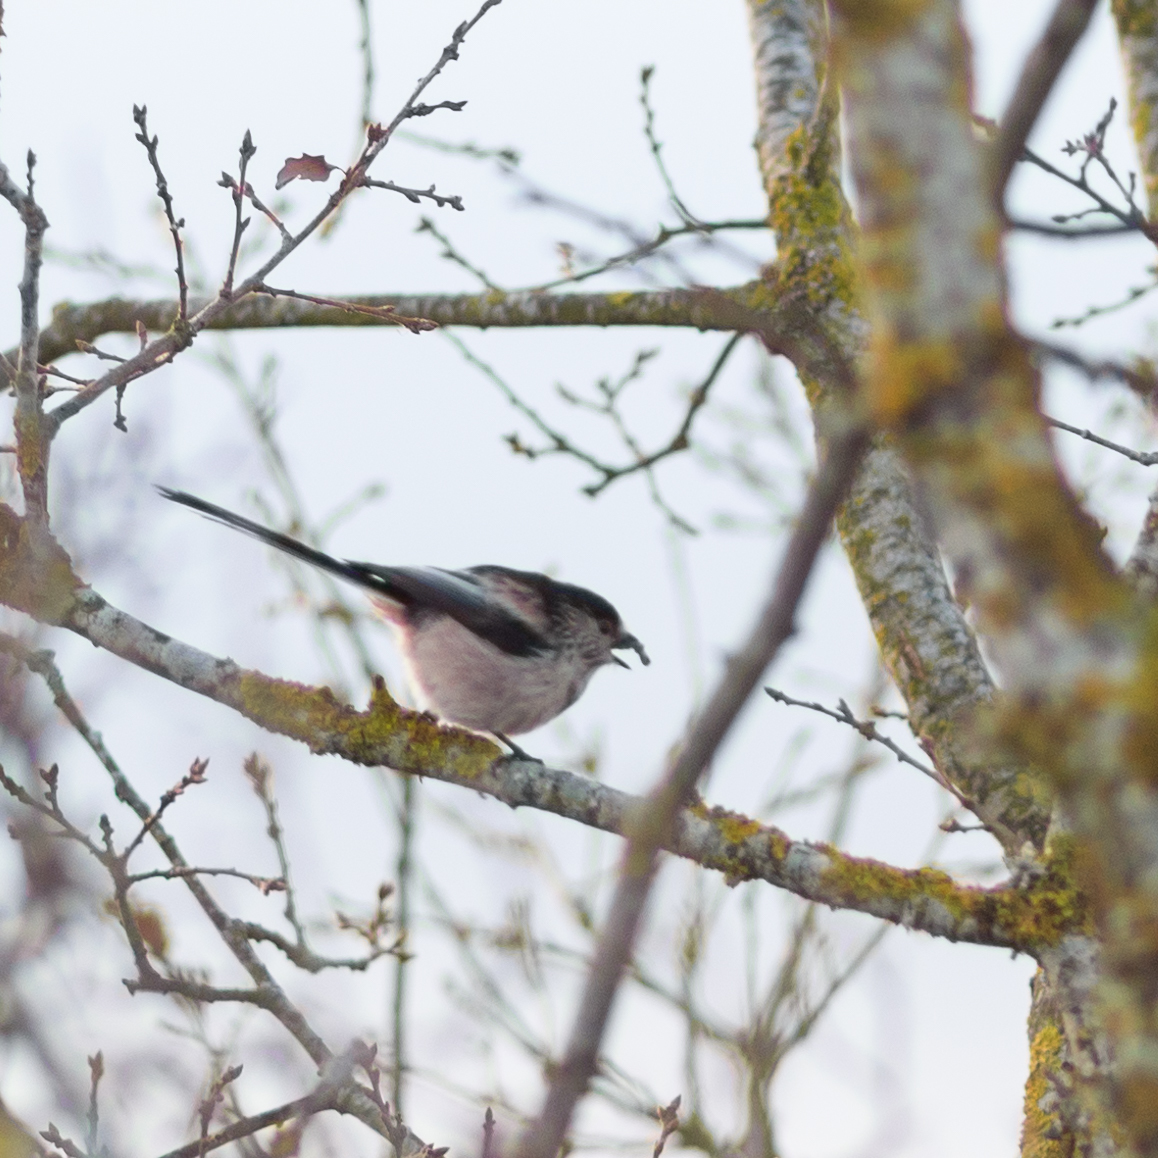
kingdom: Animalia
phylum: Chordata
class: Aves
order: Passeriformes
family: Aegithalidae
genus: Aegithalos
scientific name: Aegithalos caudatus
